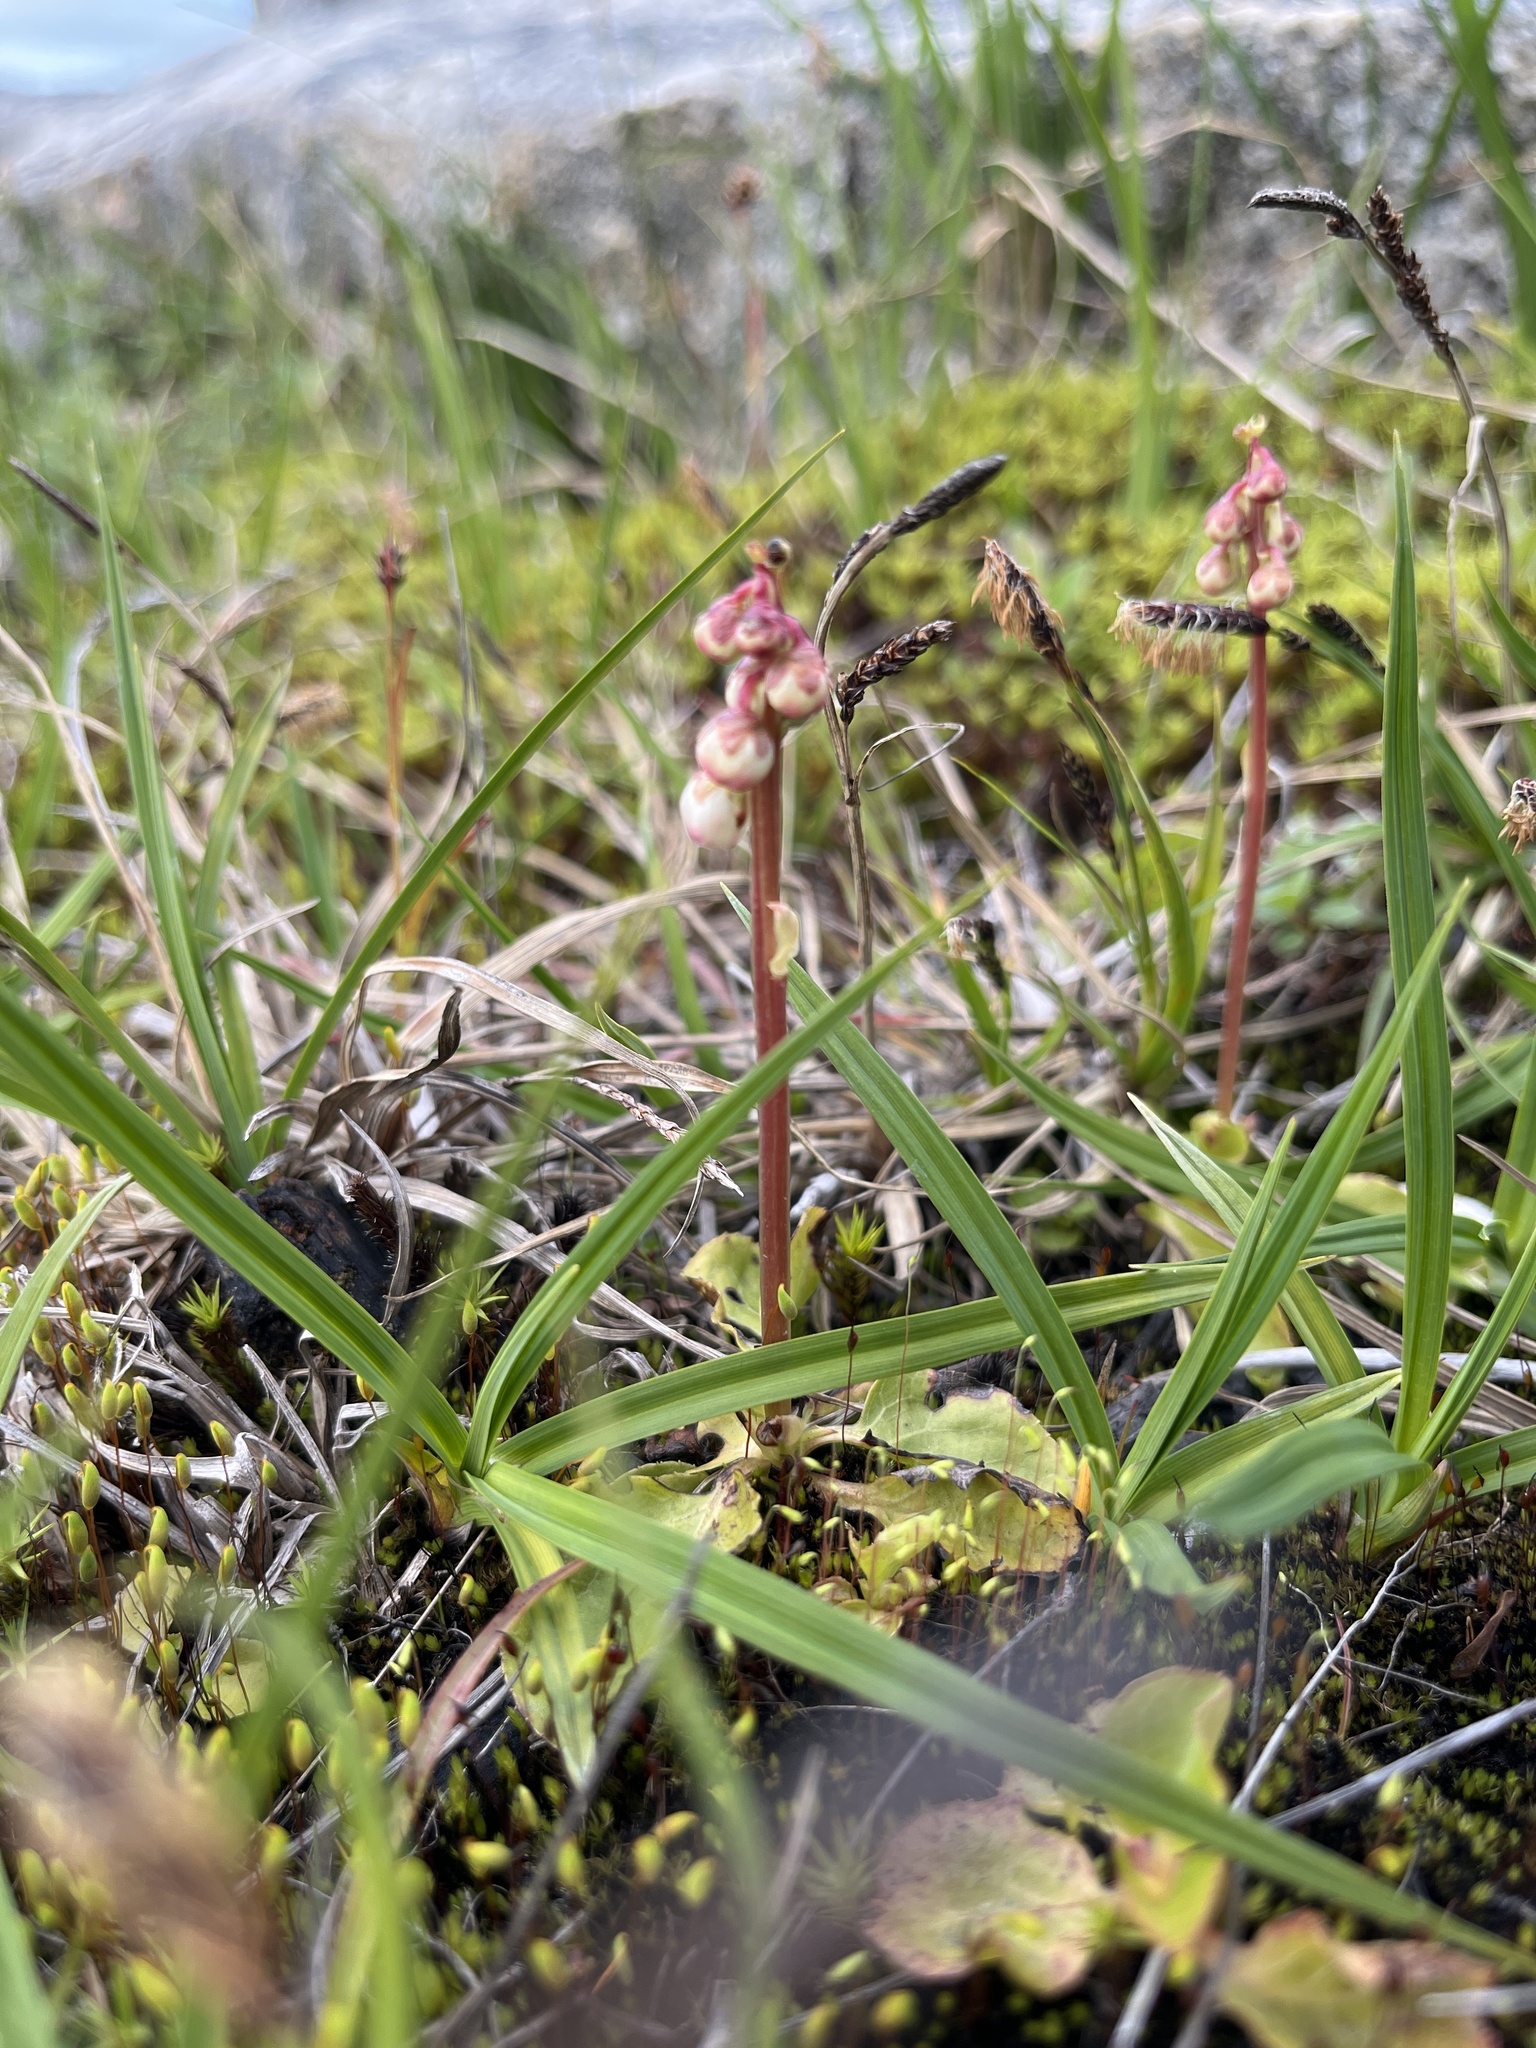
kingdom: Plantae
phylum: Tracheophyta
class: Magnoliopsida
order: Ericales
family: Ericaceae
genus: Pyrola
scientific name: Pyrola minor
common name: Common wintergreen
